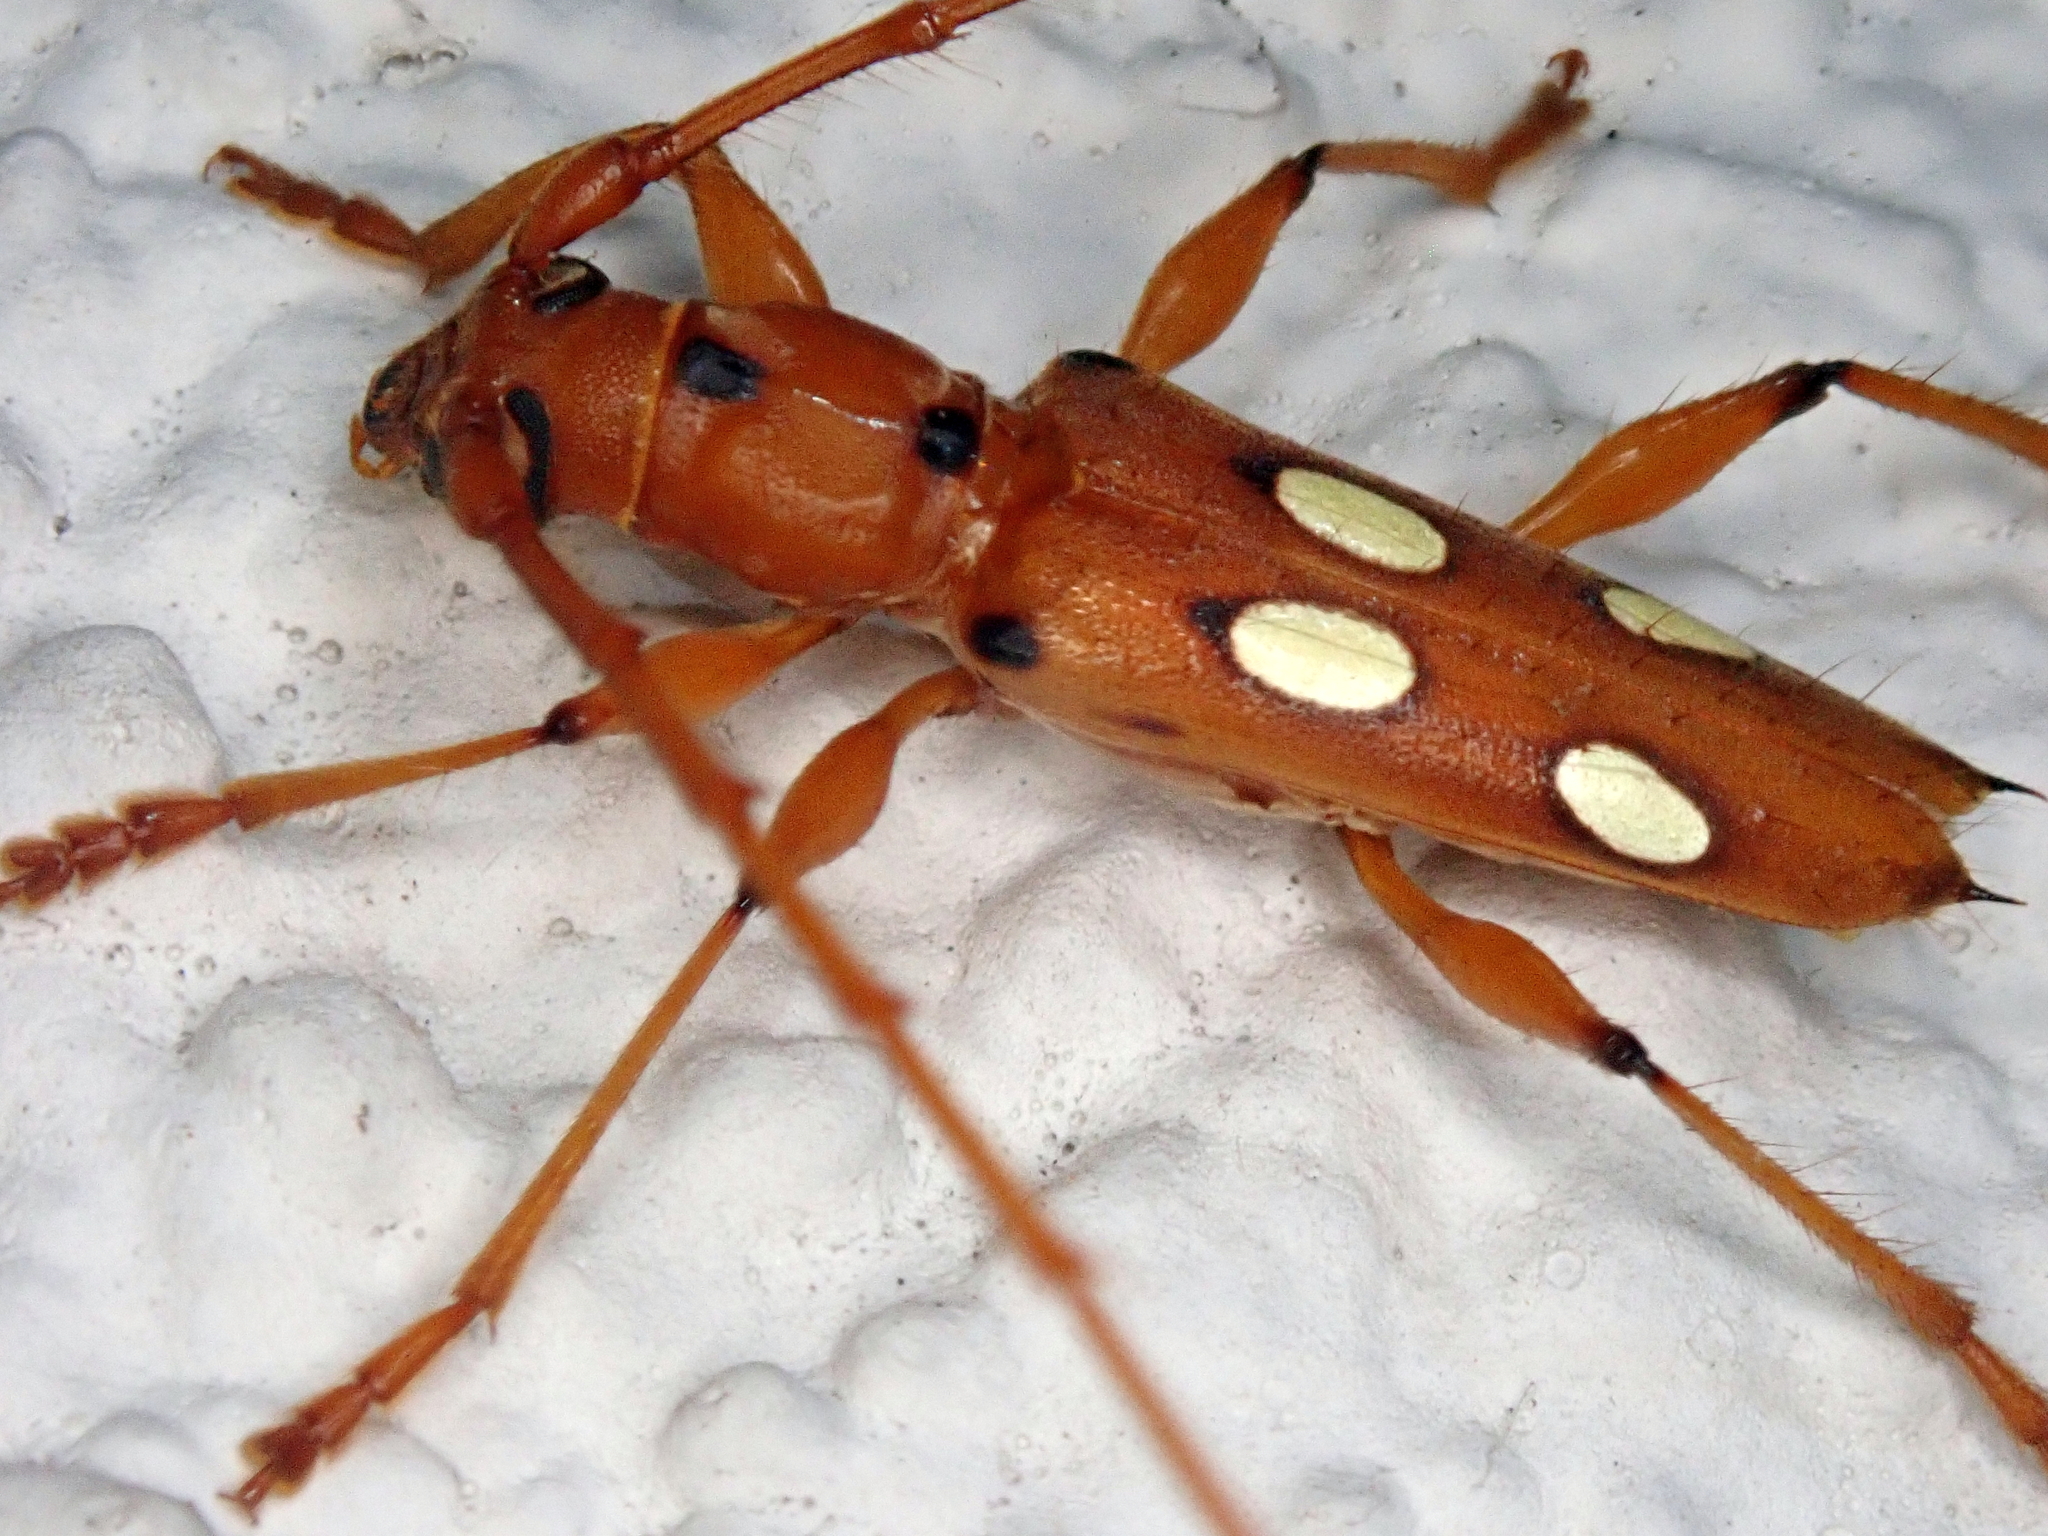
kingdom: Animalia
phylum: Arthropoda
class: Insecta
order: Coleoptera
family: Cerambycidae
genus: Paranyssicus
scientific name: Paranyssicus conspicillatus
